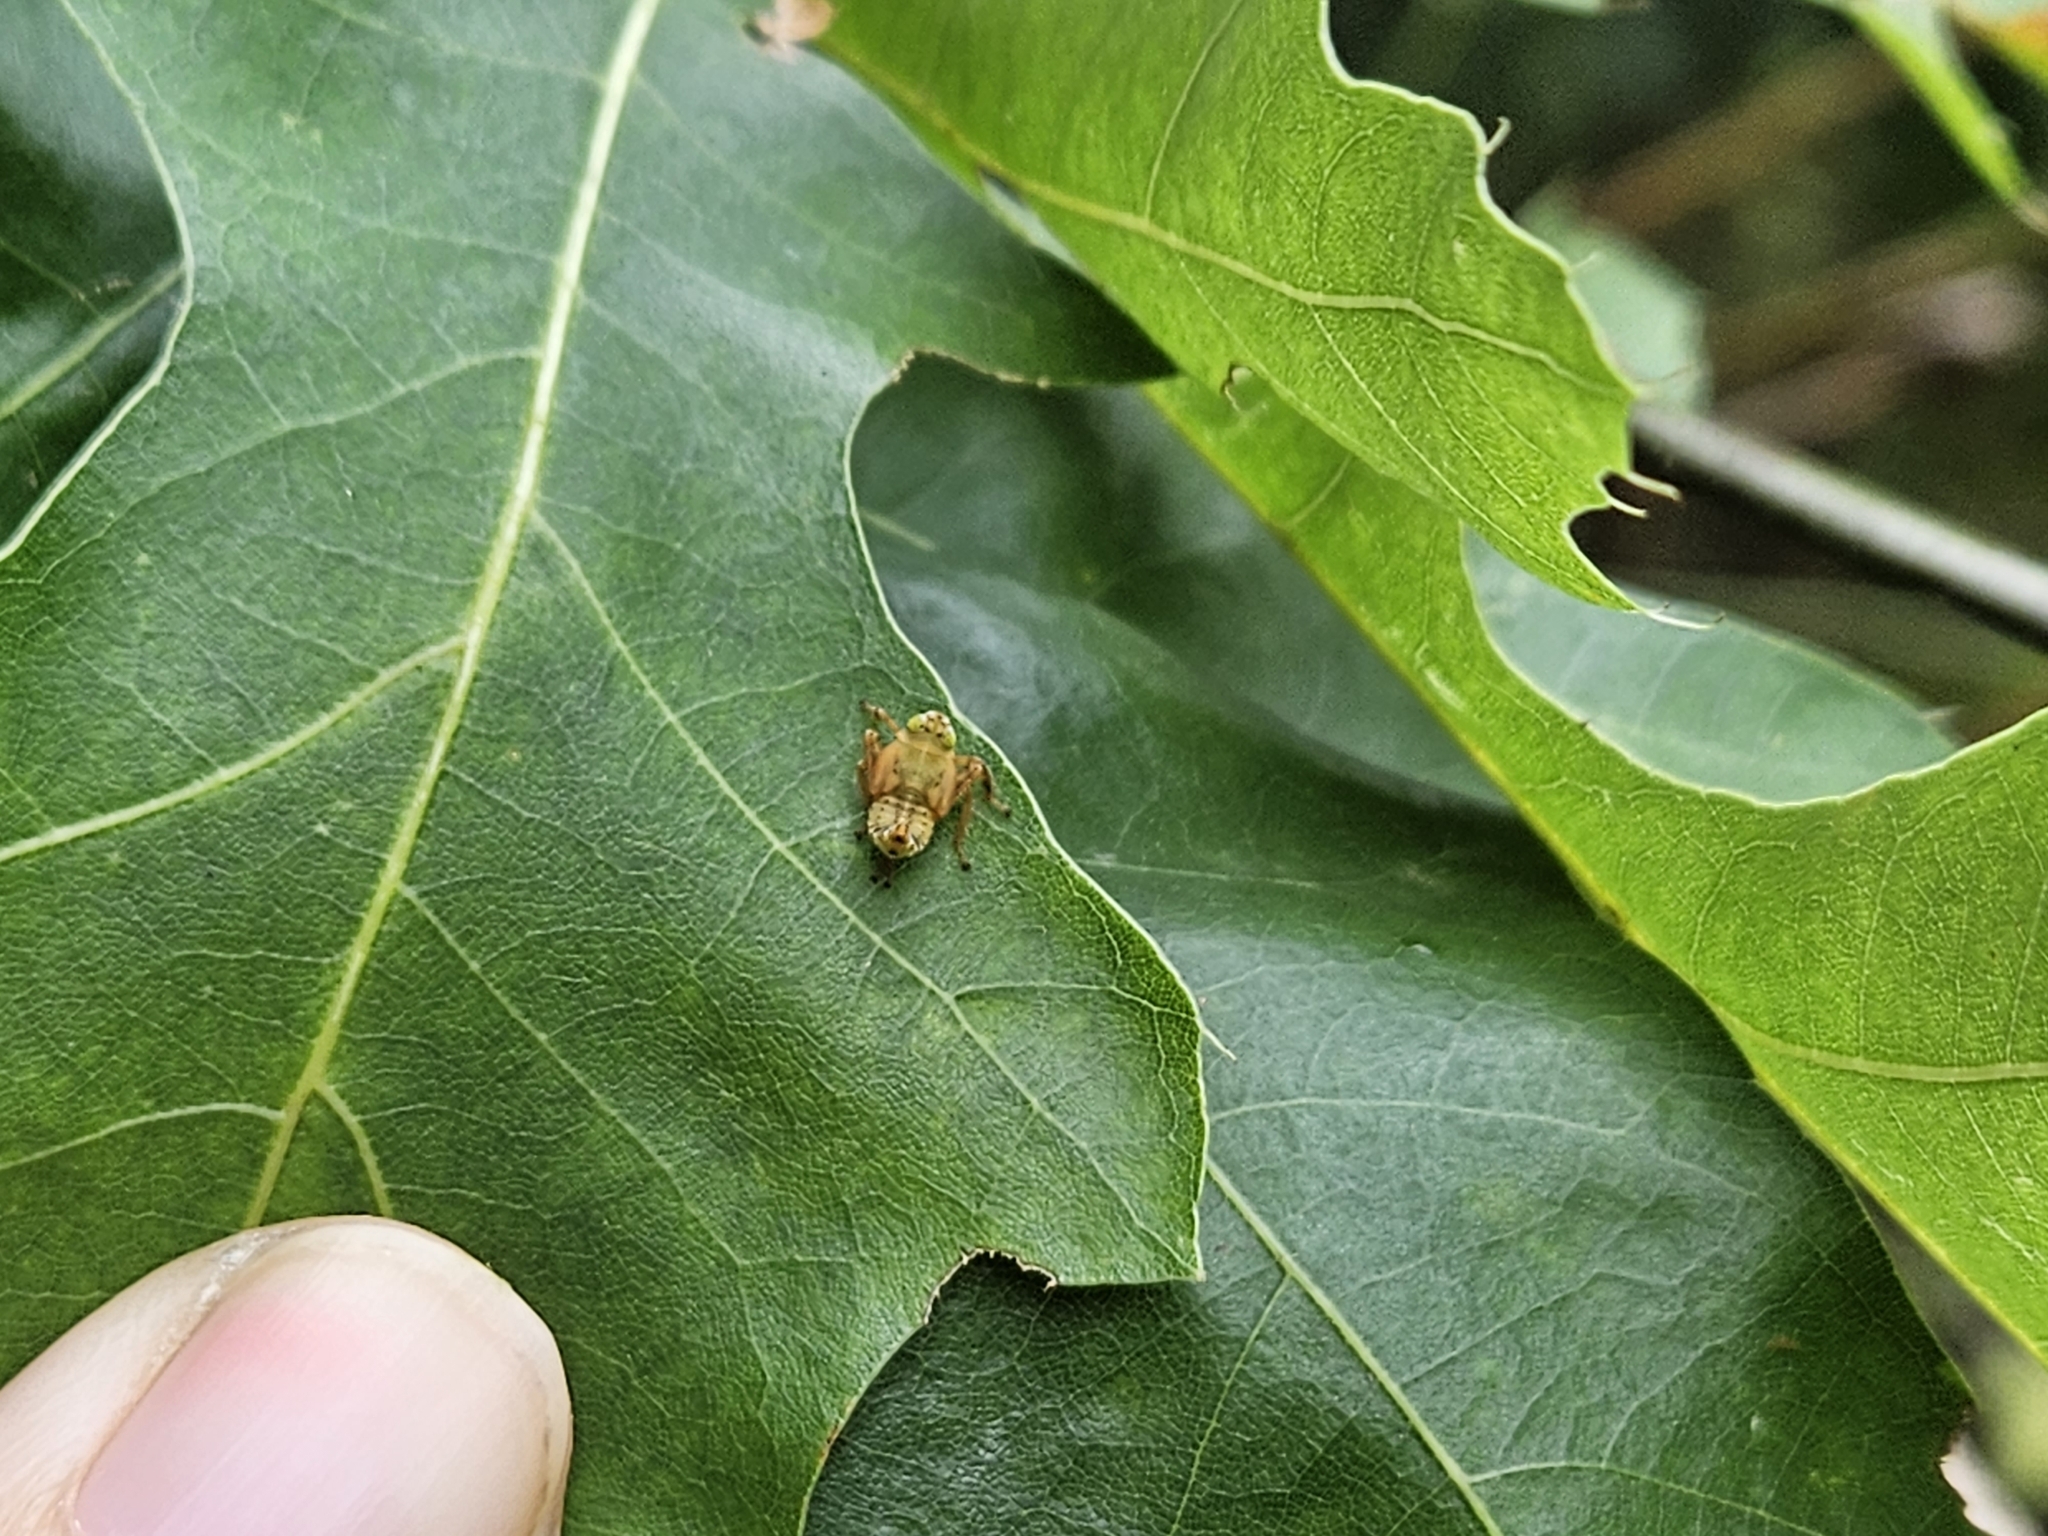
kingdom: Animalia
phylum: Arthropoda
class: Insecta
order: Hemiptera
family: Cicadellidae
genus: Jikradia
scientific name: Jikradia olitoria
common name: Coppery leafhopper
